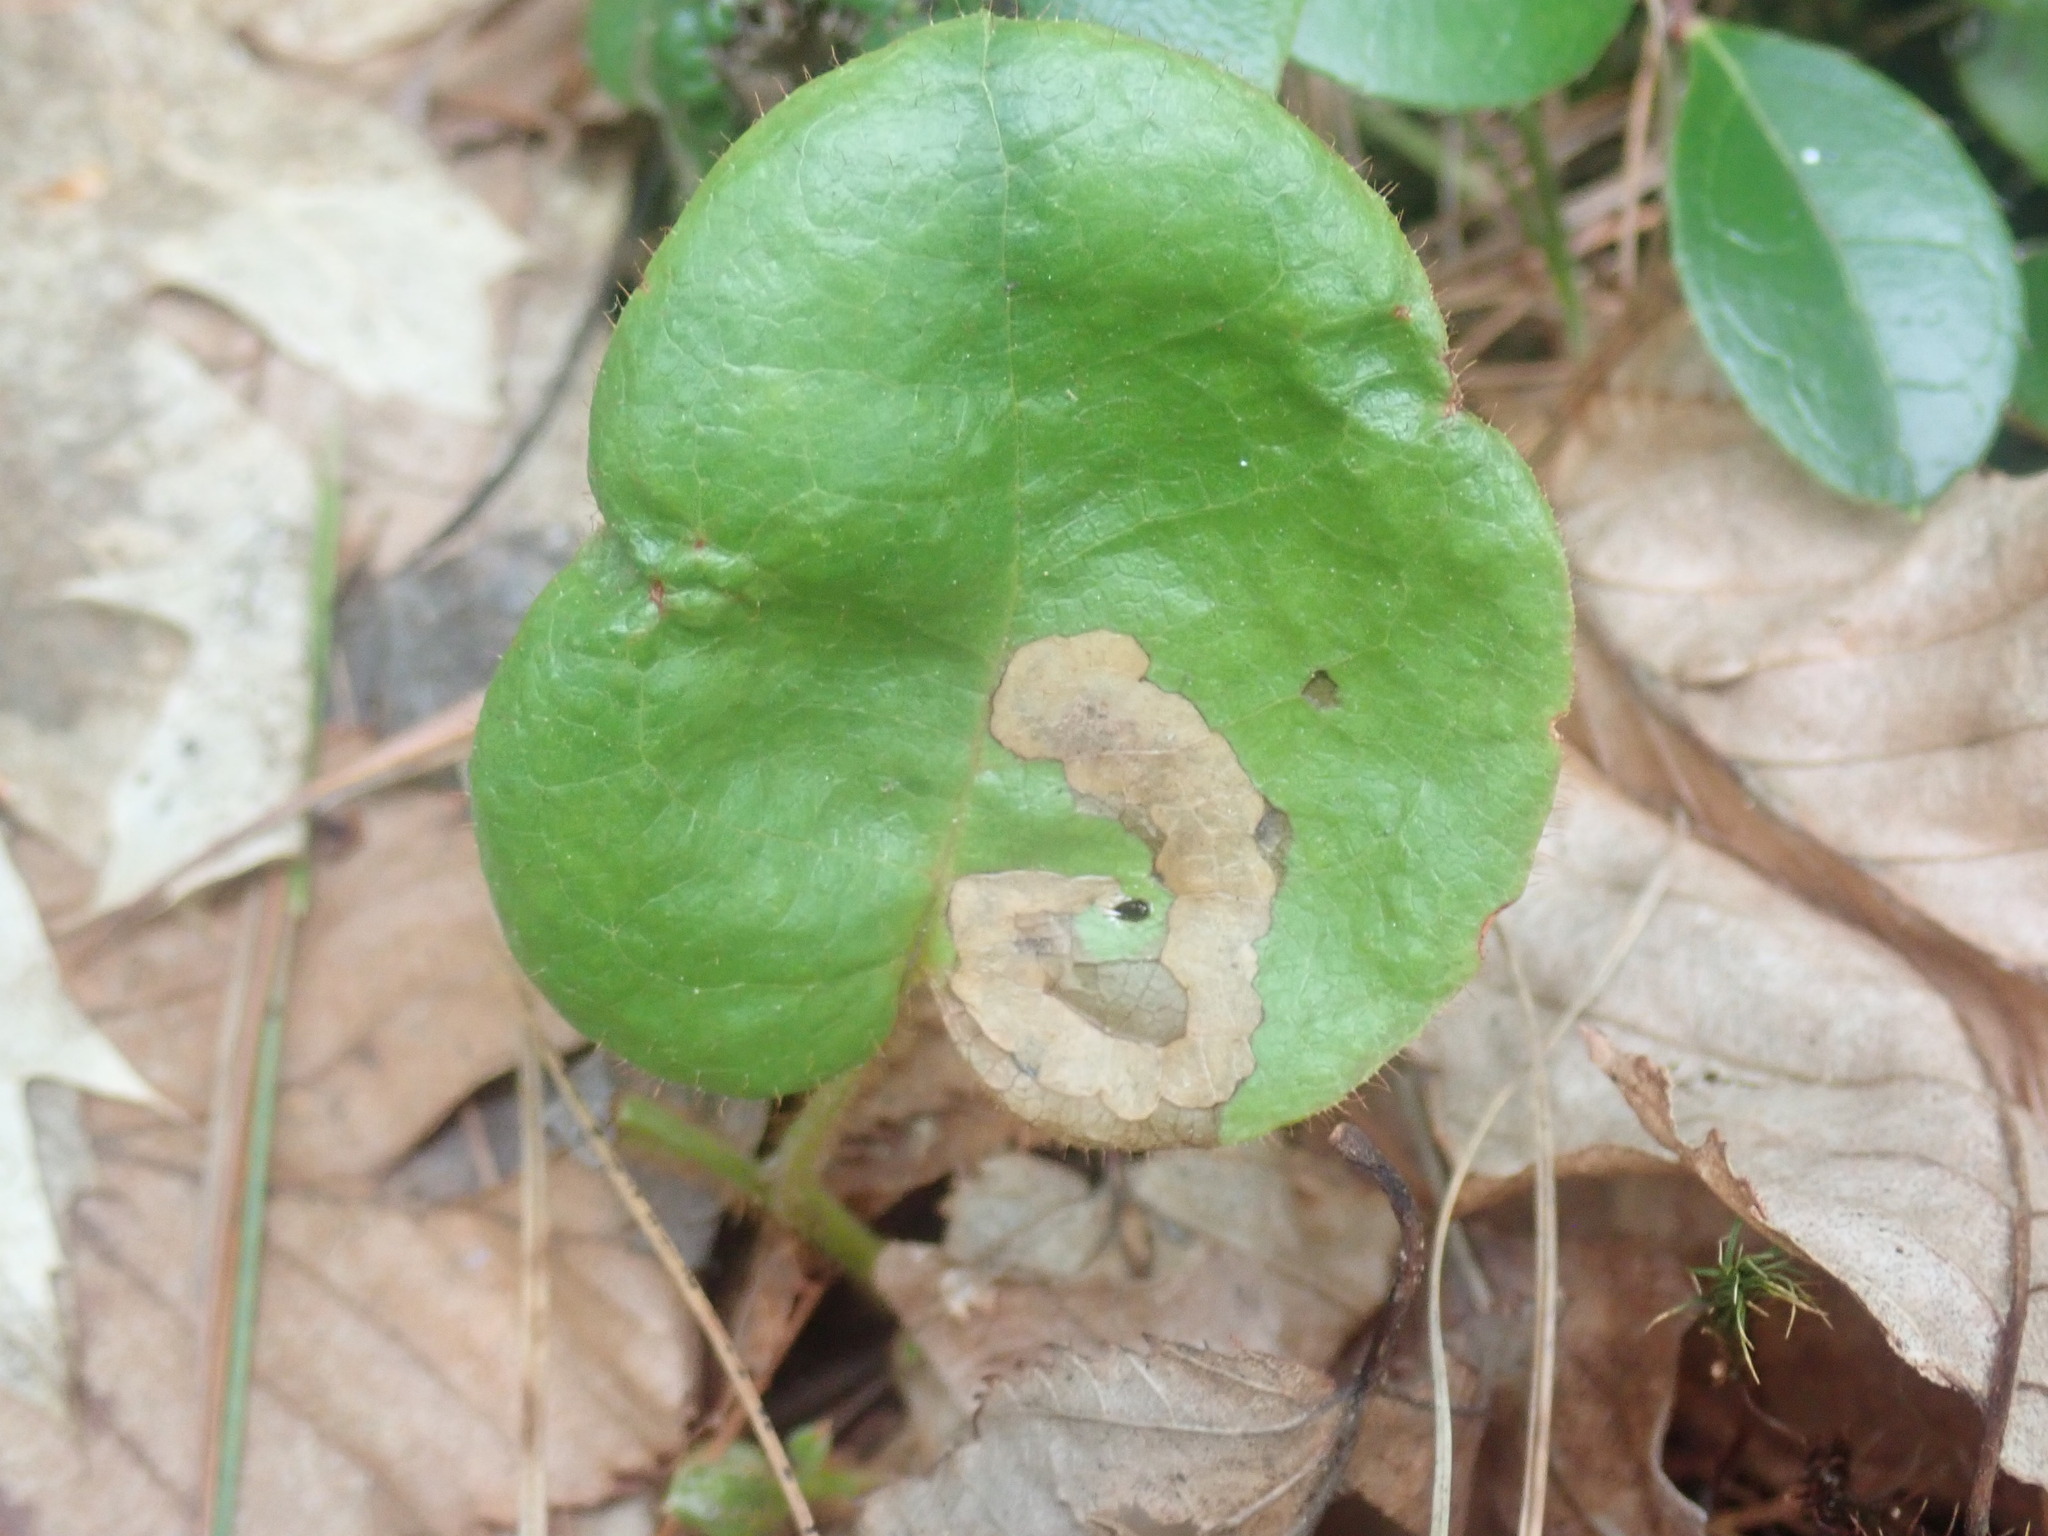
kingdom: Animalia
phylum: Arthropoda
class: Insecta
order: Coleoptera
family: Buprestidae
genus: Brachys
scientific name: Brachys
